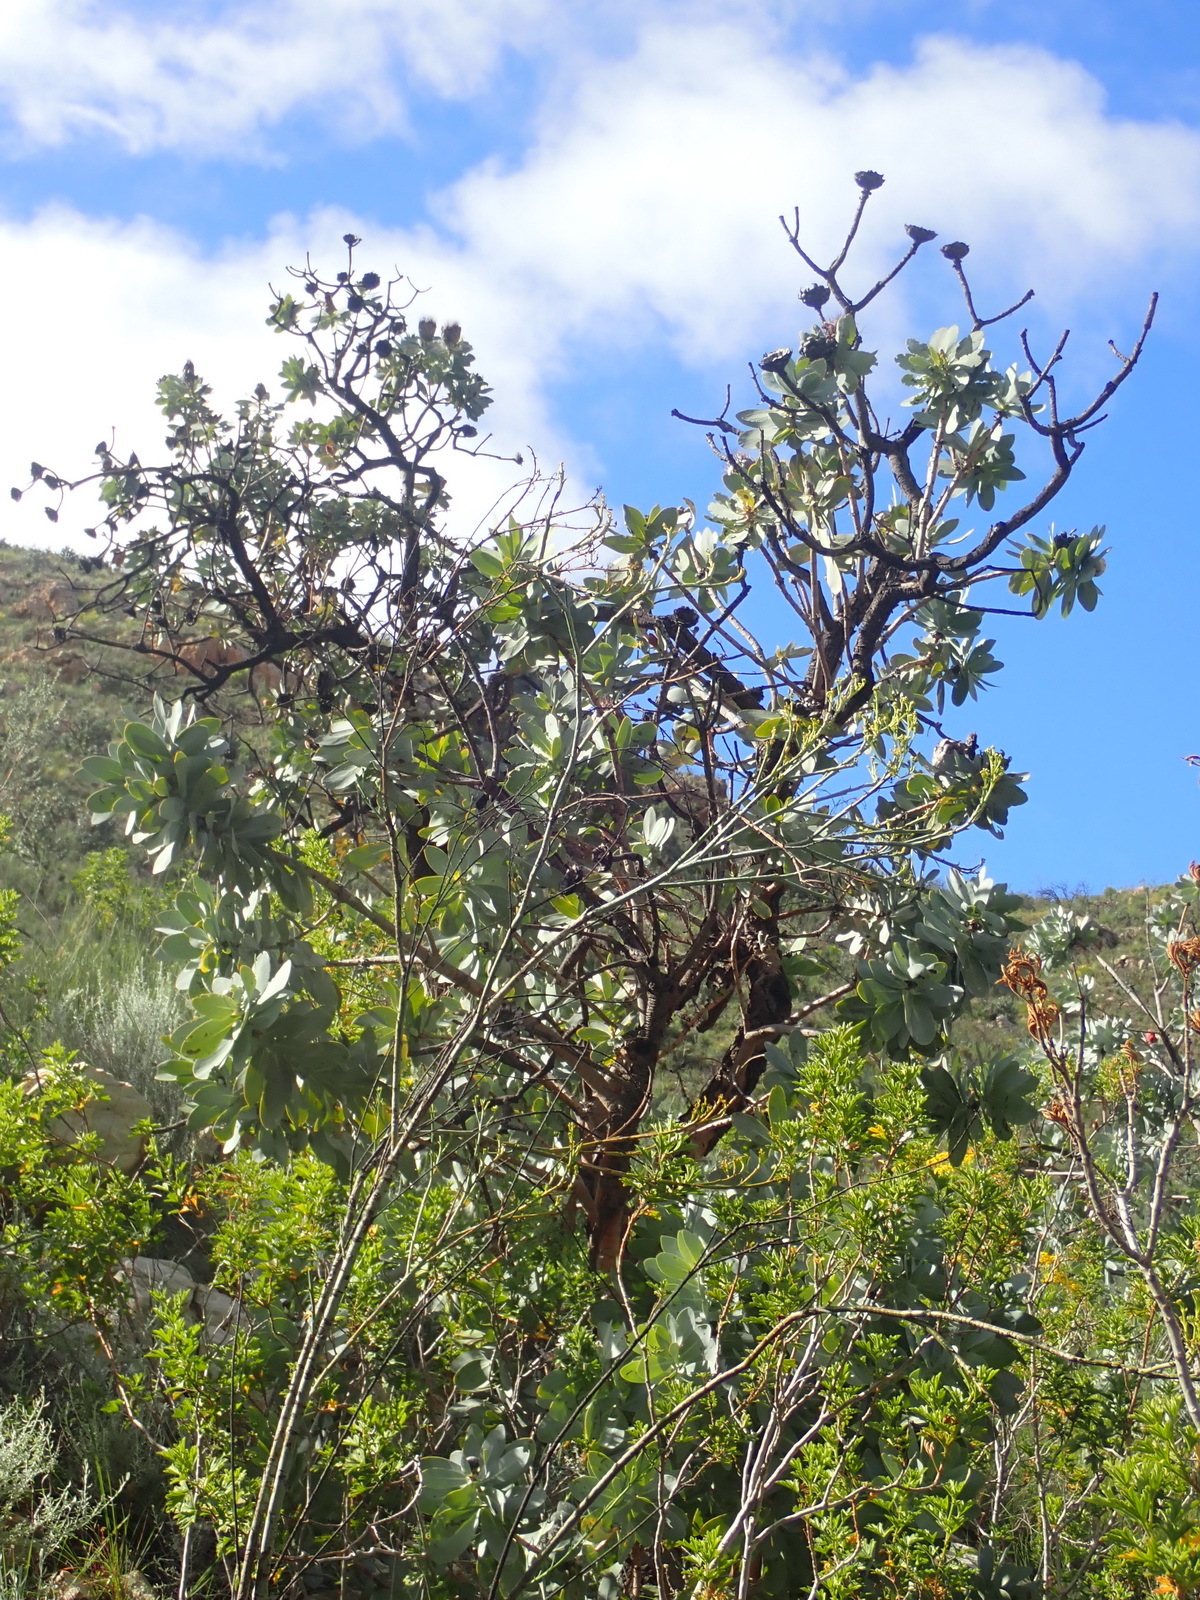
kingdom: Plantae
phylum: Tracheophyta
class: Magnoliopsida
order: Proteales
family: Proteaceae
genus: Protea
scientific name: Protea nitida
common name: Tree protea
